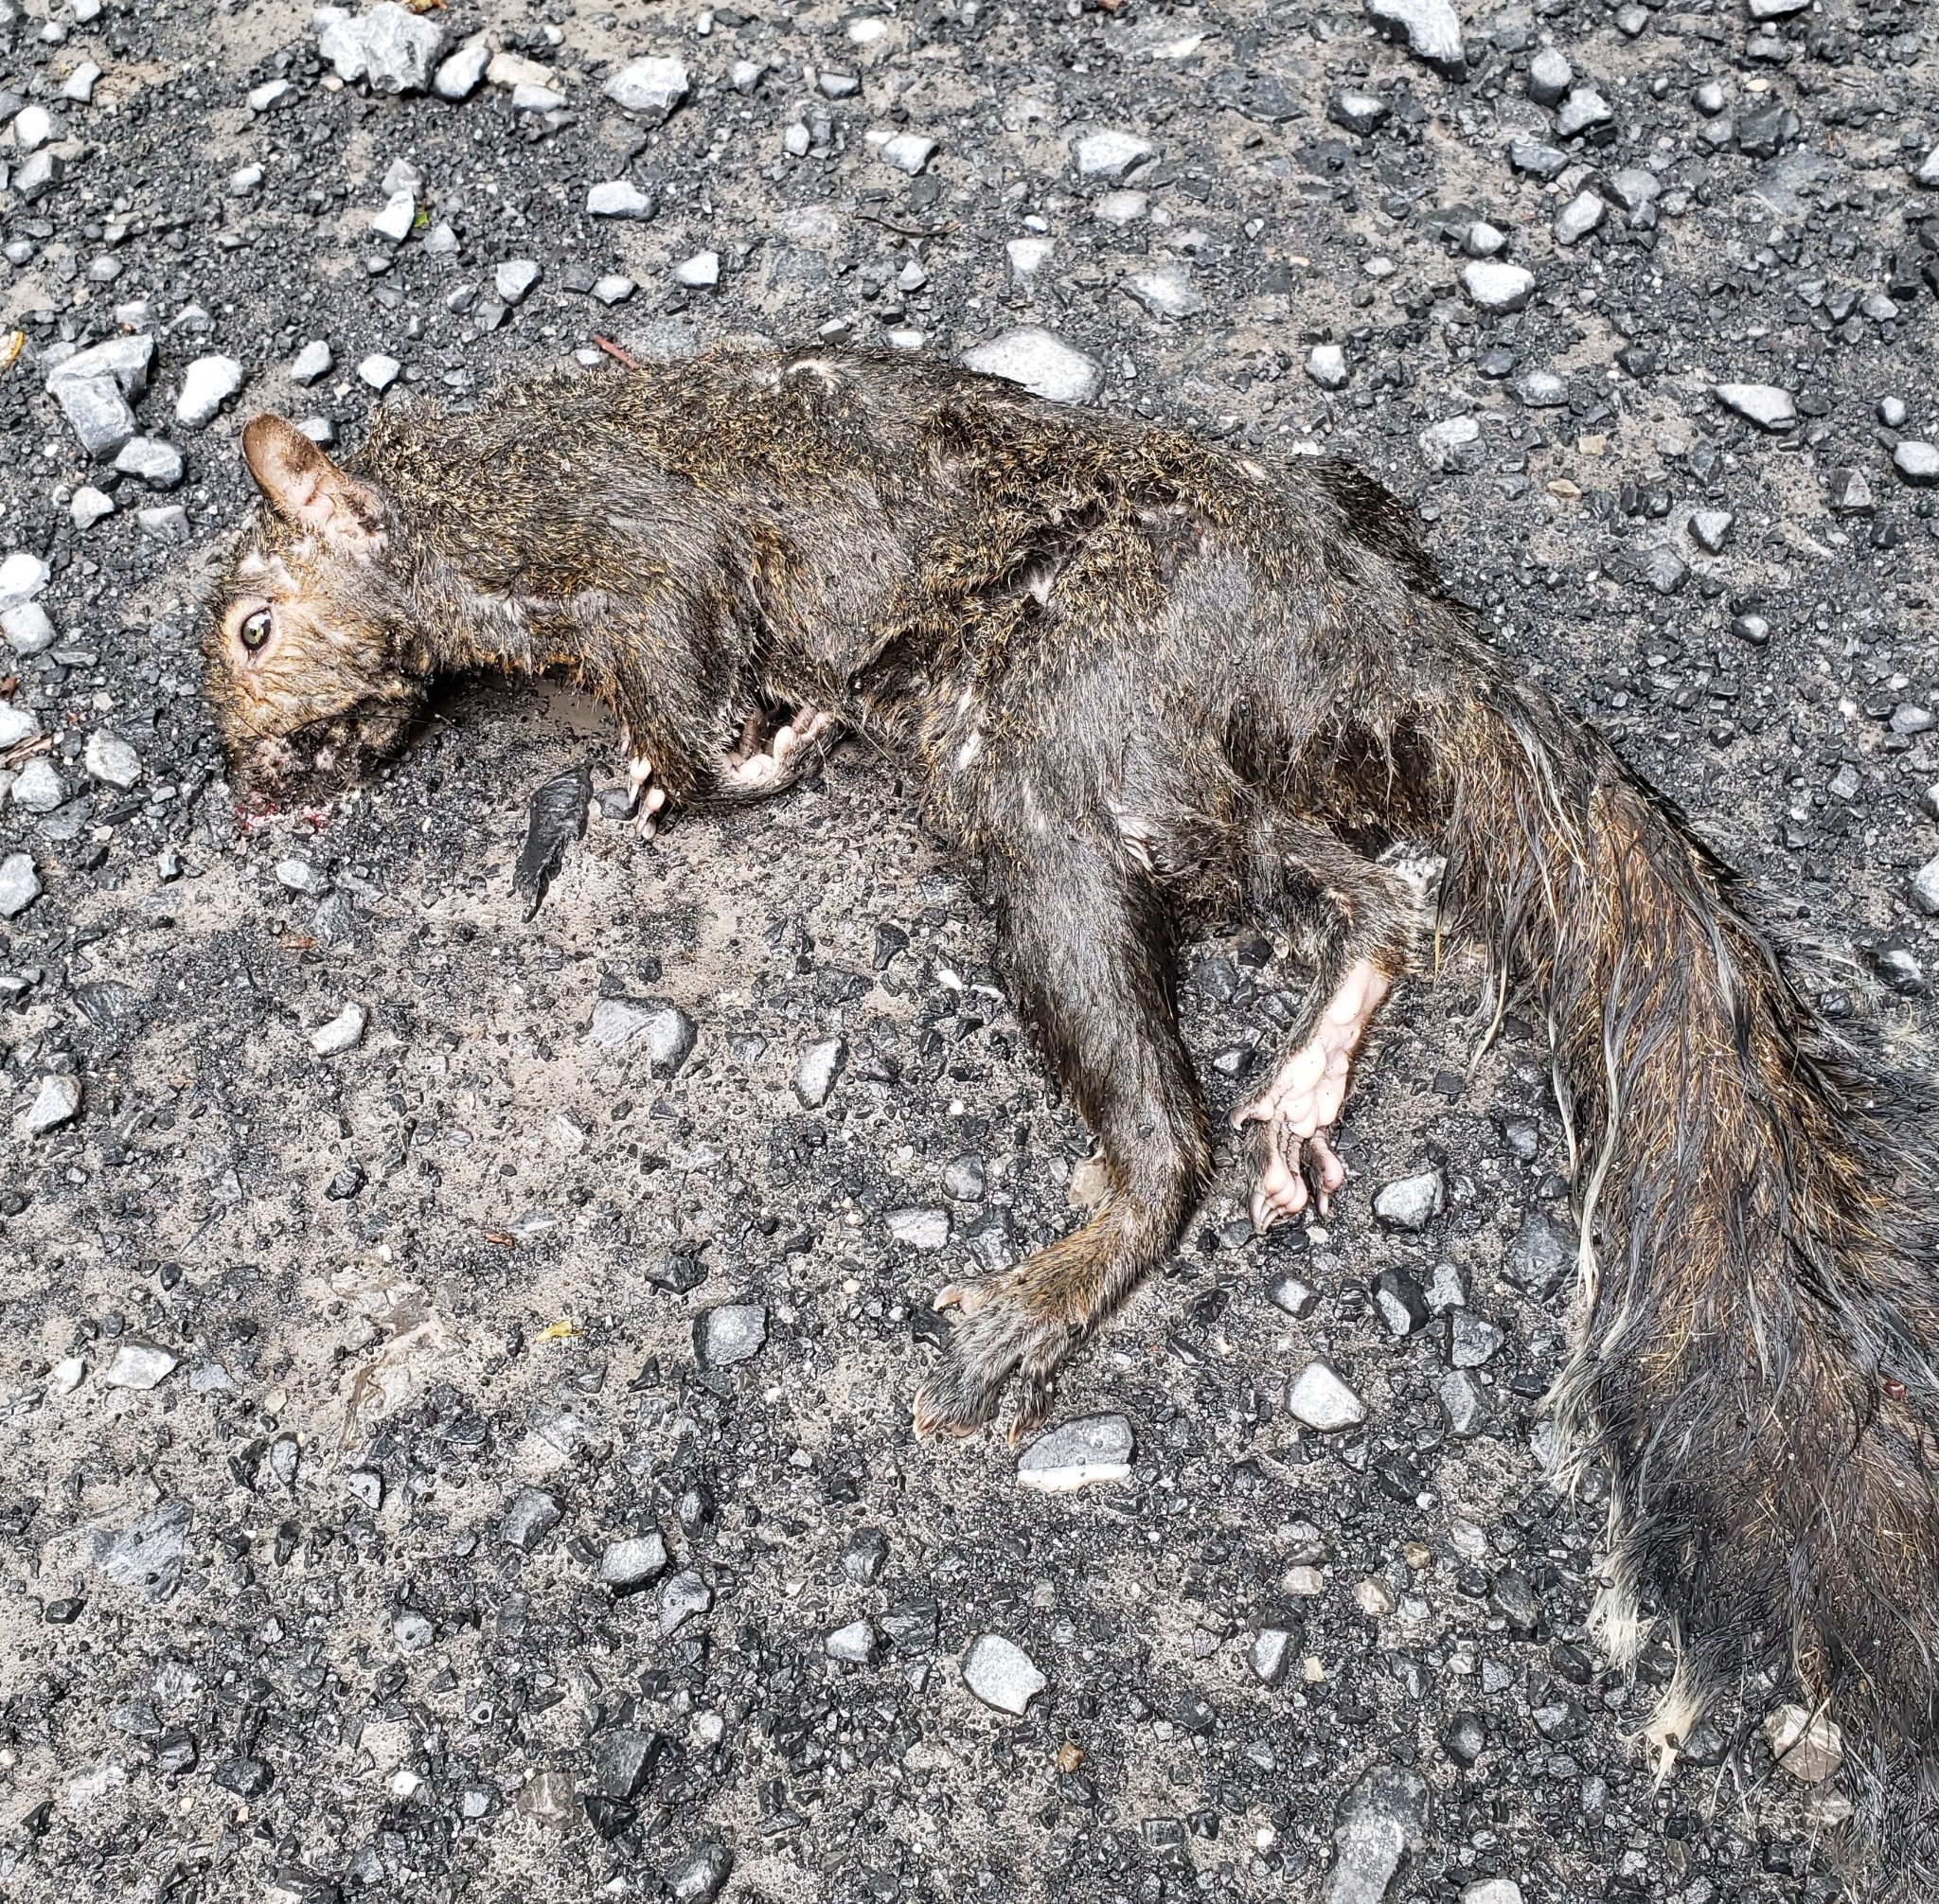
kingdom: Animalia
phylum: Chordata
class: Mammalia
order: Rodentia
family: Sciuridae
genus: Sciurus
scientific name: Sciurus carolinensis
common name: Eastern gray squirrel
